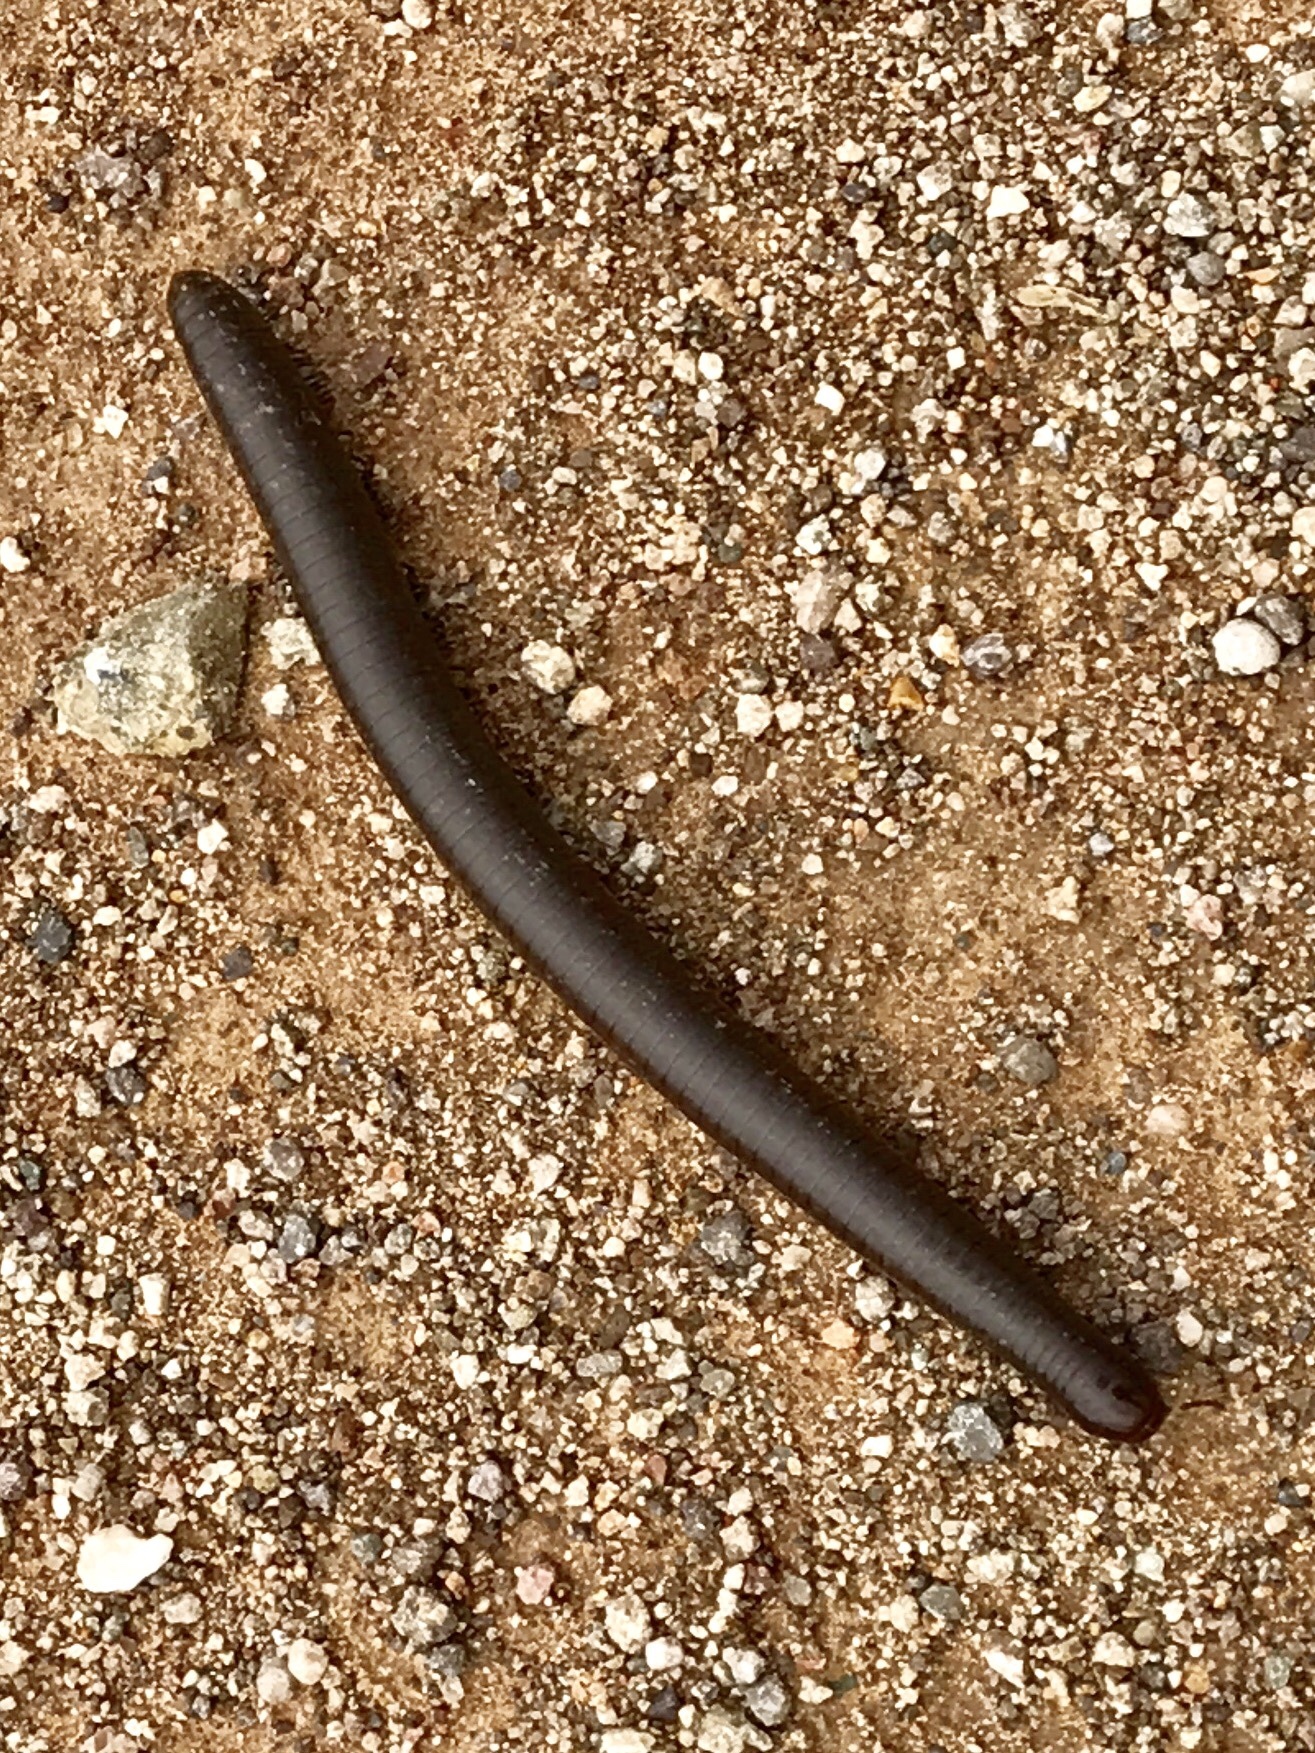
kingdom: Animalia
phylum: Arthropoda
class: Diplopoda
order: Spirostreptida
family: Spirostreptidae
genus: Orthoporus
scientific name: Orthoporus ornatus
